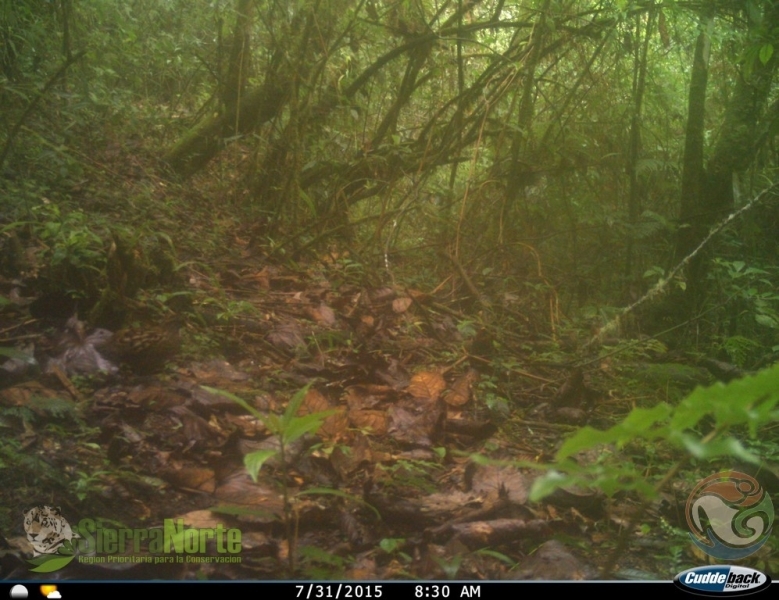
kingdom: Animalia
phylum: Chordata
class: Aves
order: Galliformes
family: Odontophoridae
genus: Odontophorus
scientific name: Odontophorus guttatus
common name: Spotted wood-quail
